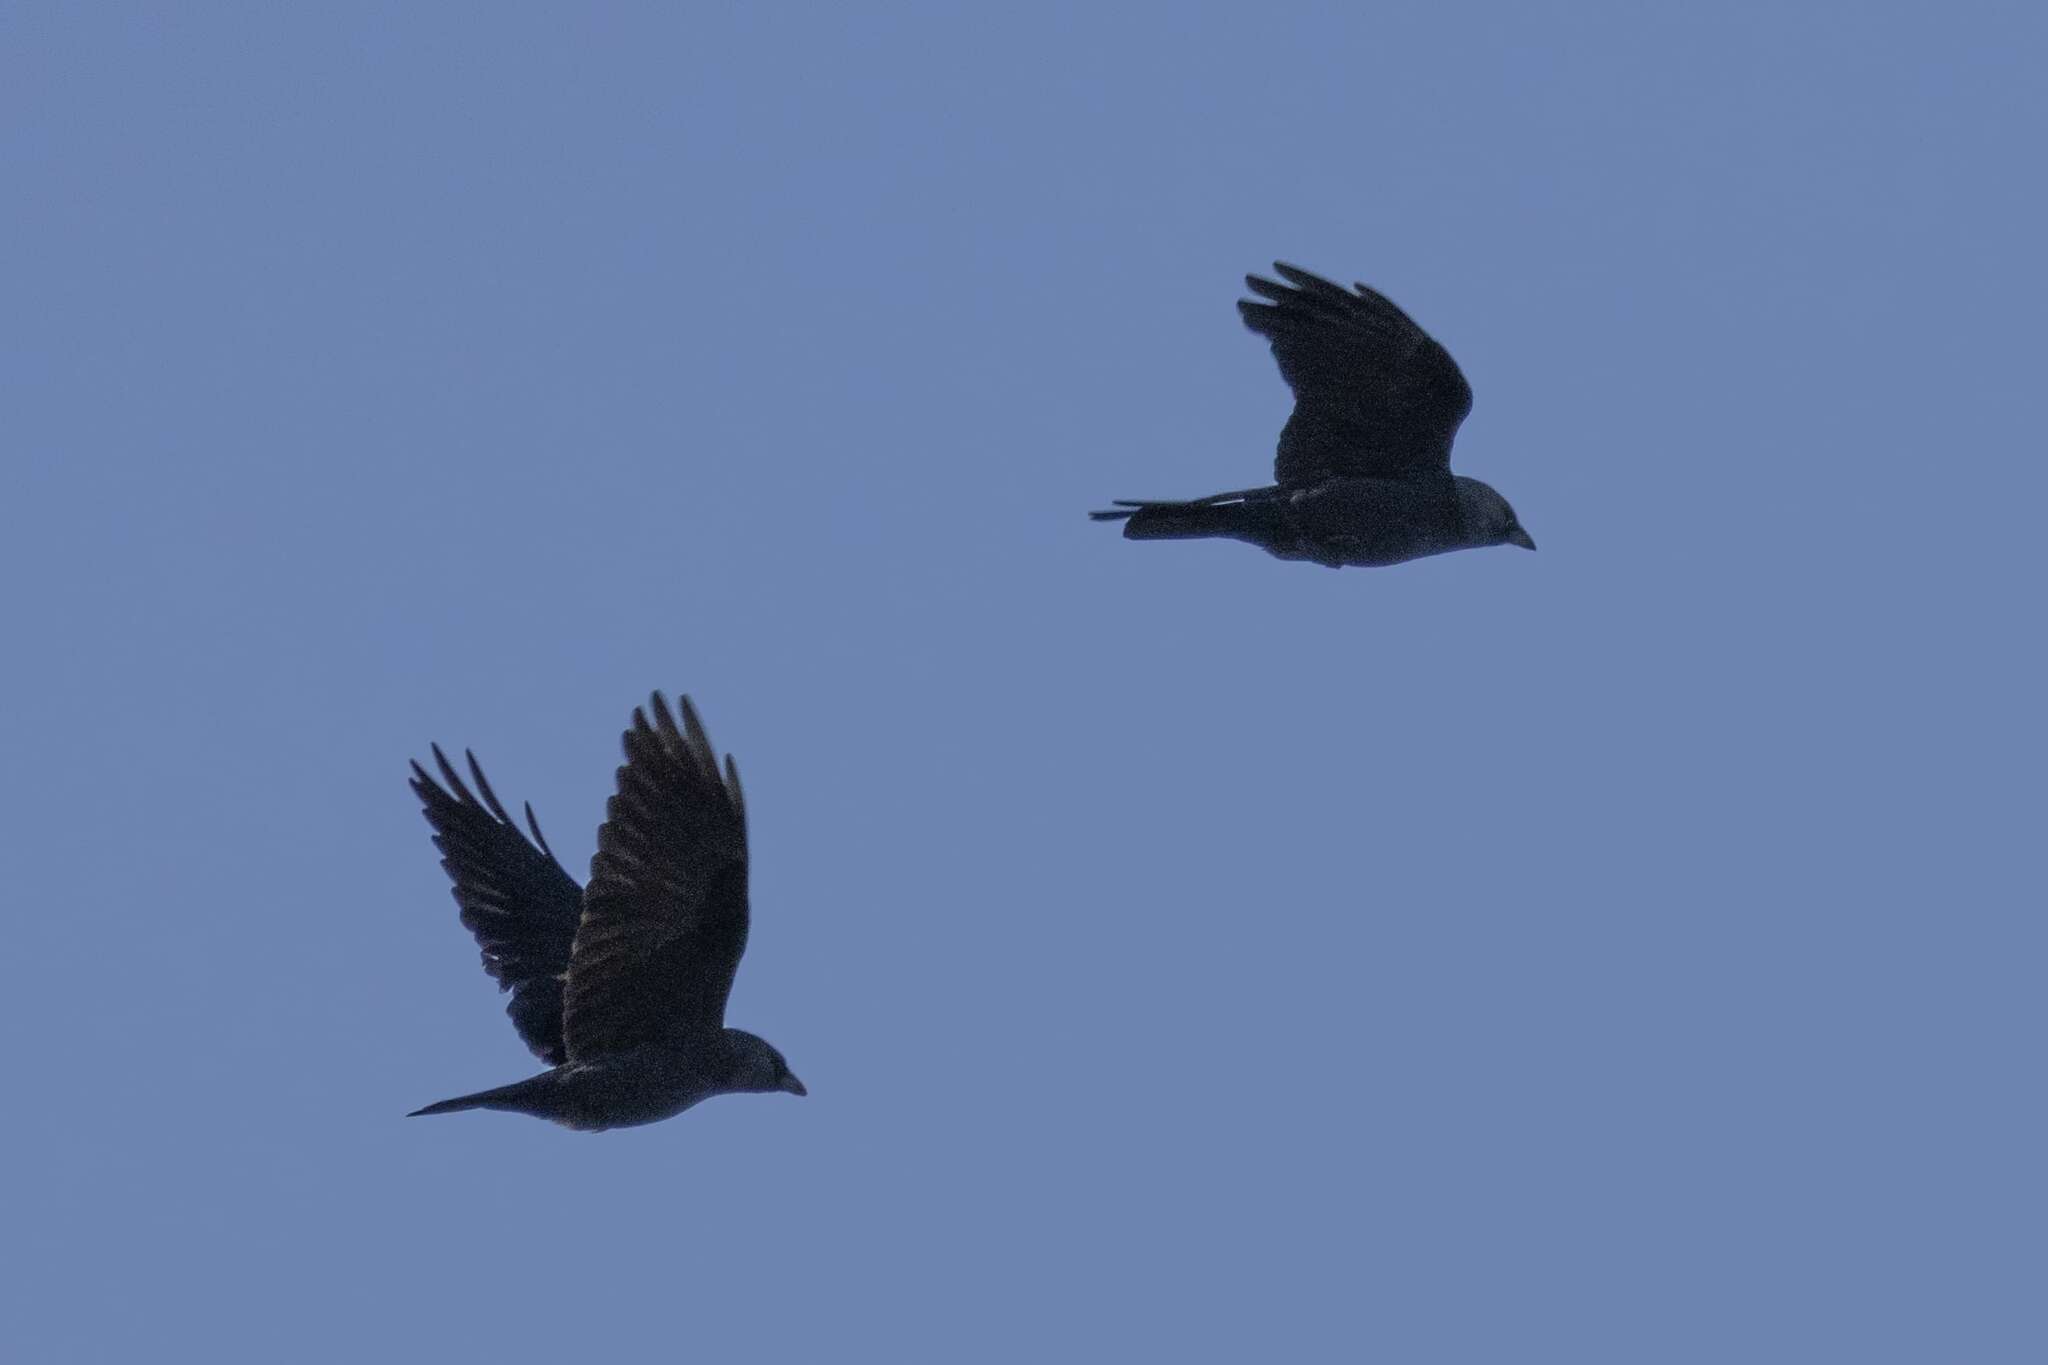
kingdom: Animalia
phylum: Chordata
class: Aves
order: Passeriformes
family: Corvidae
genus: Coloeus
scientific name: Coloeus monedula
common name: Western jackdaw
